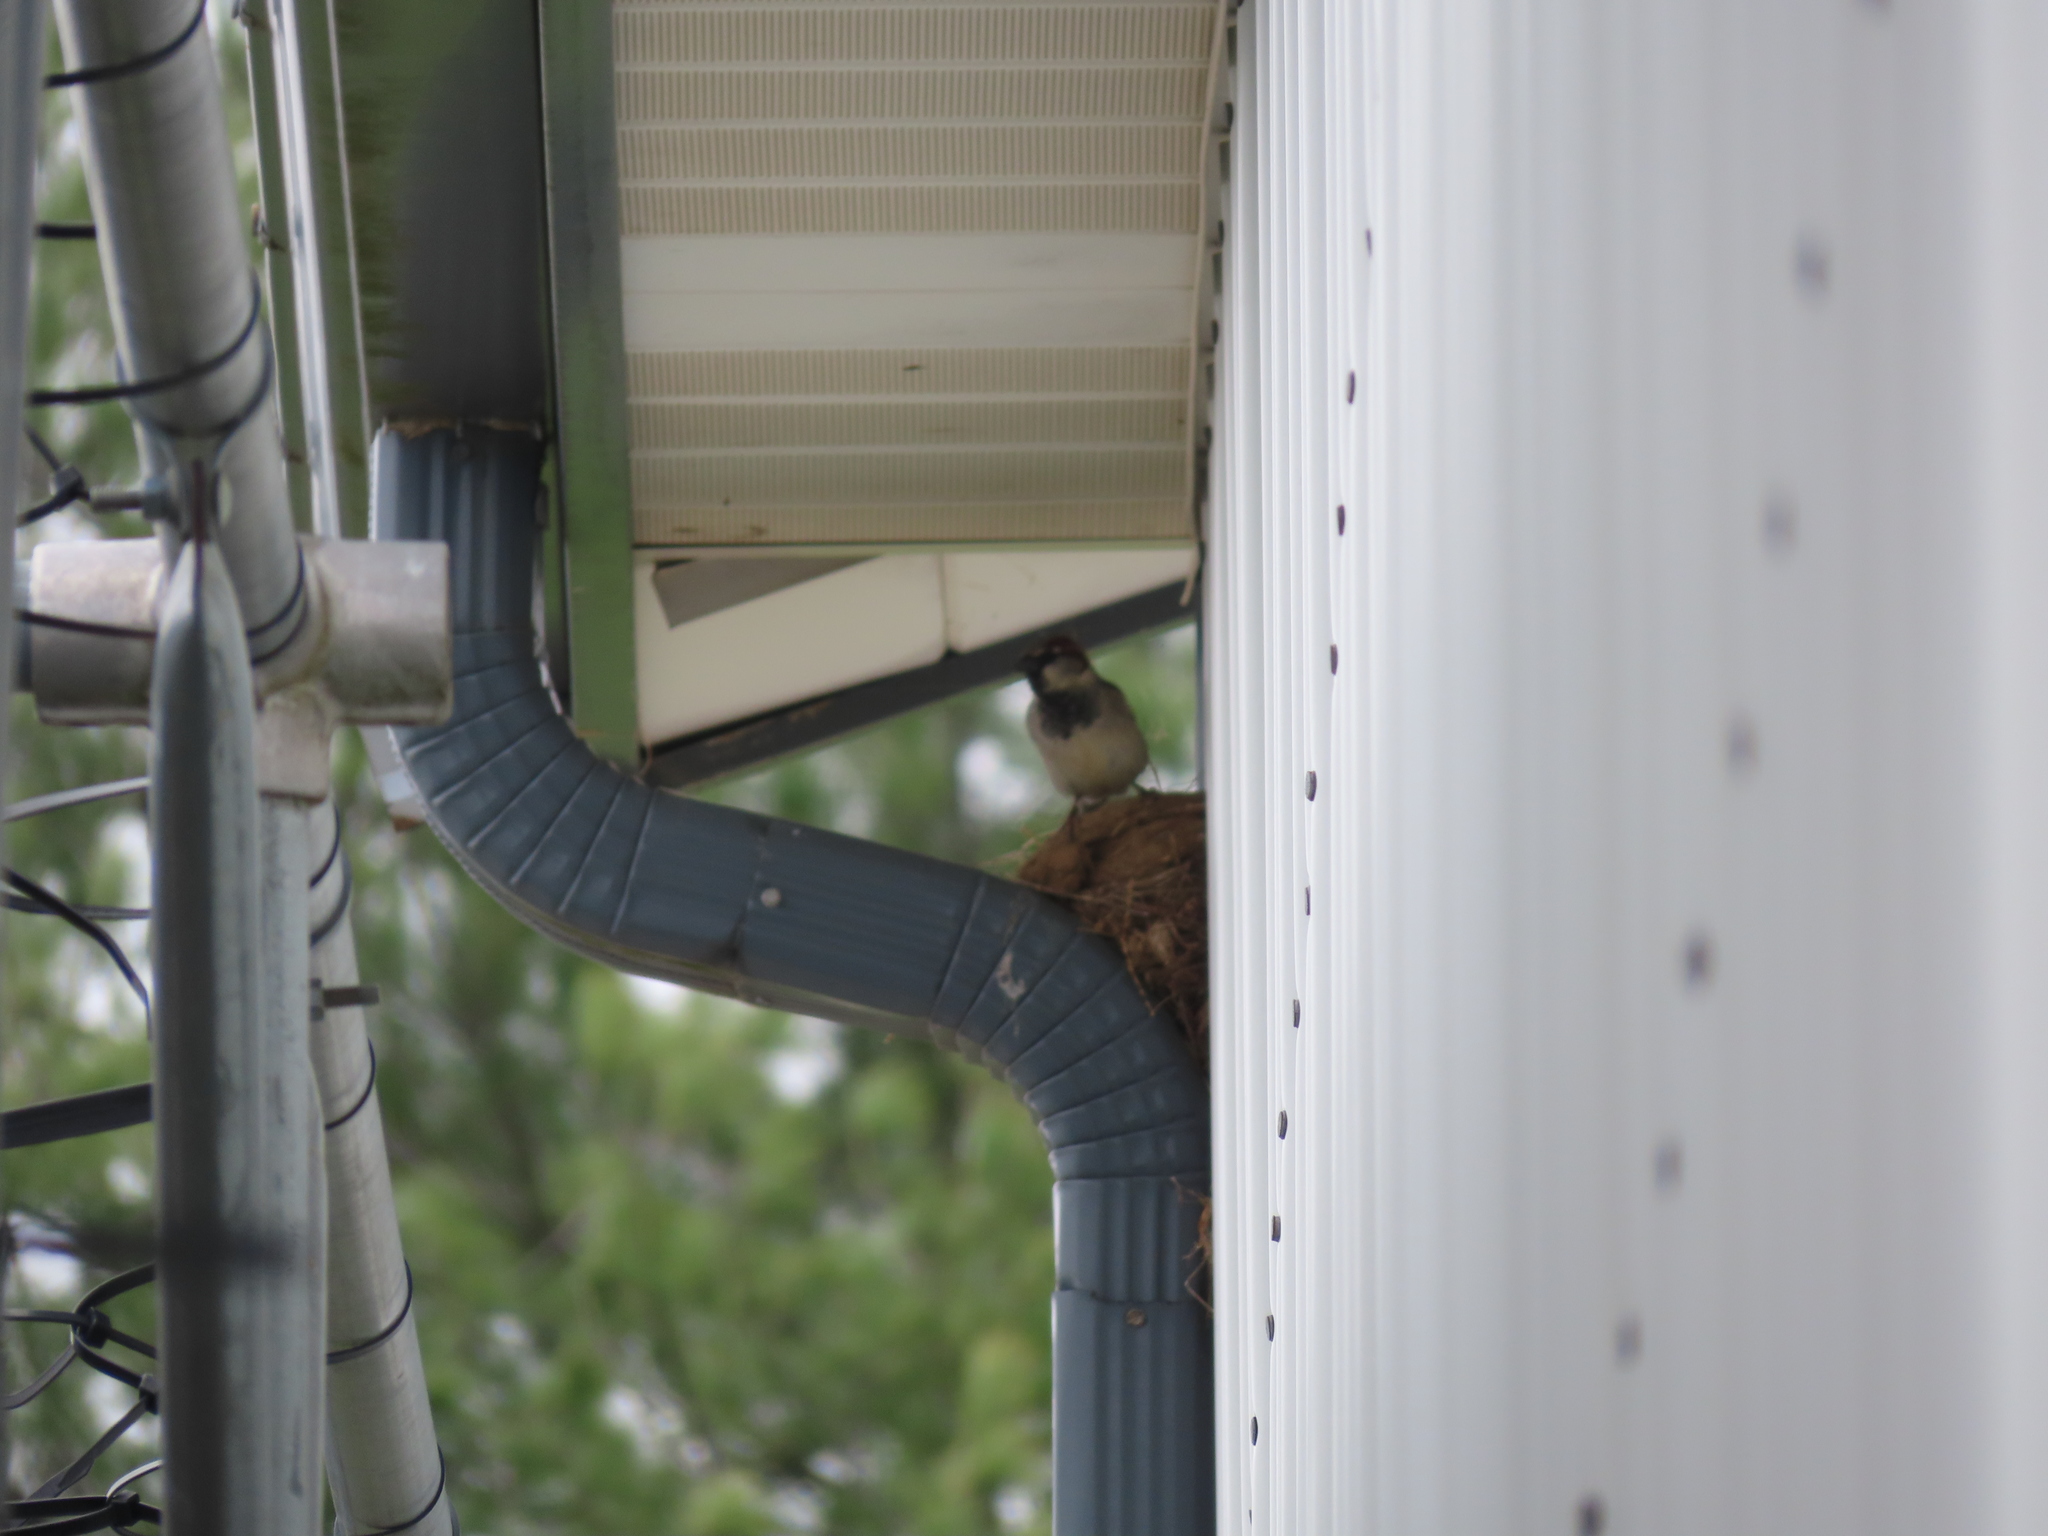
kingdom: Animalia
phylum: Chordata
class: Aves
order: Passeriformes
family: Passeridae
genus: Passer
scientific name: Passer domesticus
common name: House sparrow
